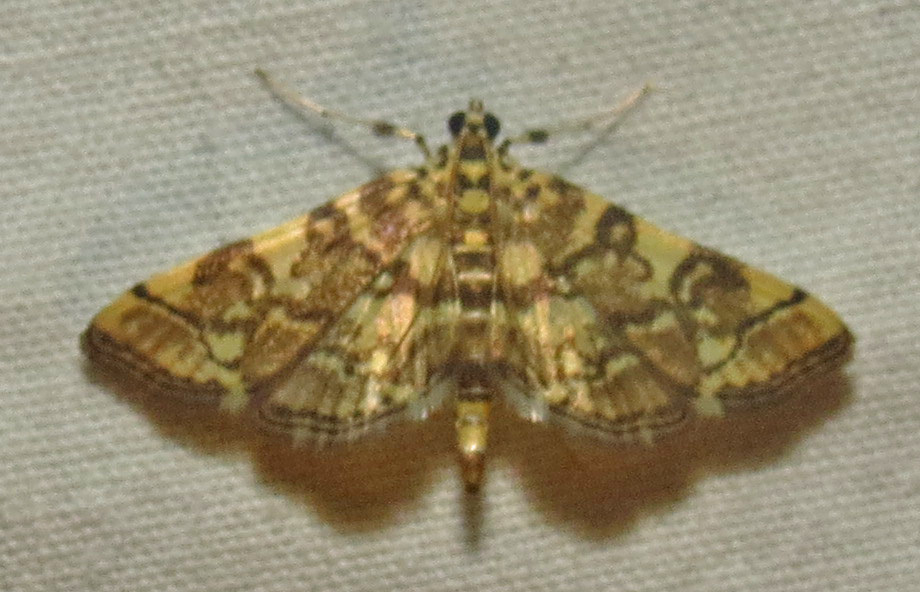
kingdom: Animalia
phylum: Arthropoda
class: Insecta
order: Lepidoptera
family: Crambidae
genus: Apogeshna
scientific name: Apogeshna stenialis
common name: Checkered apogeshna moth
